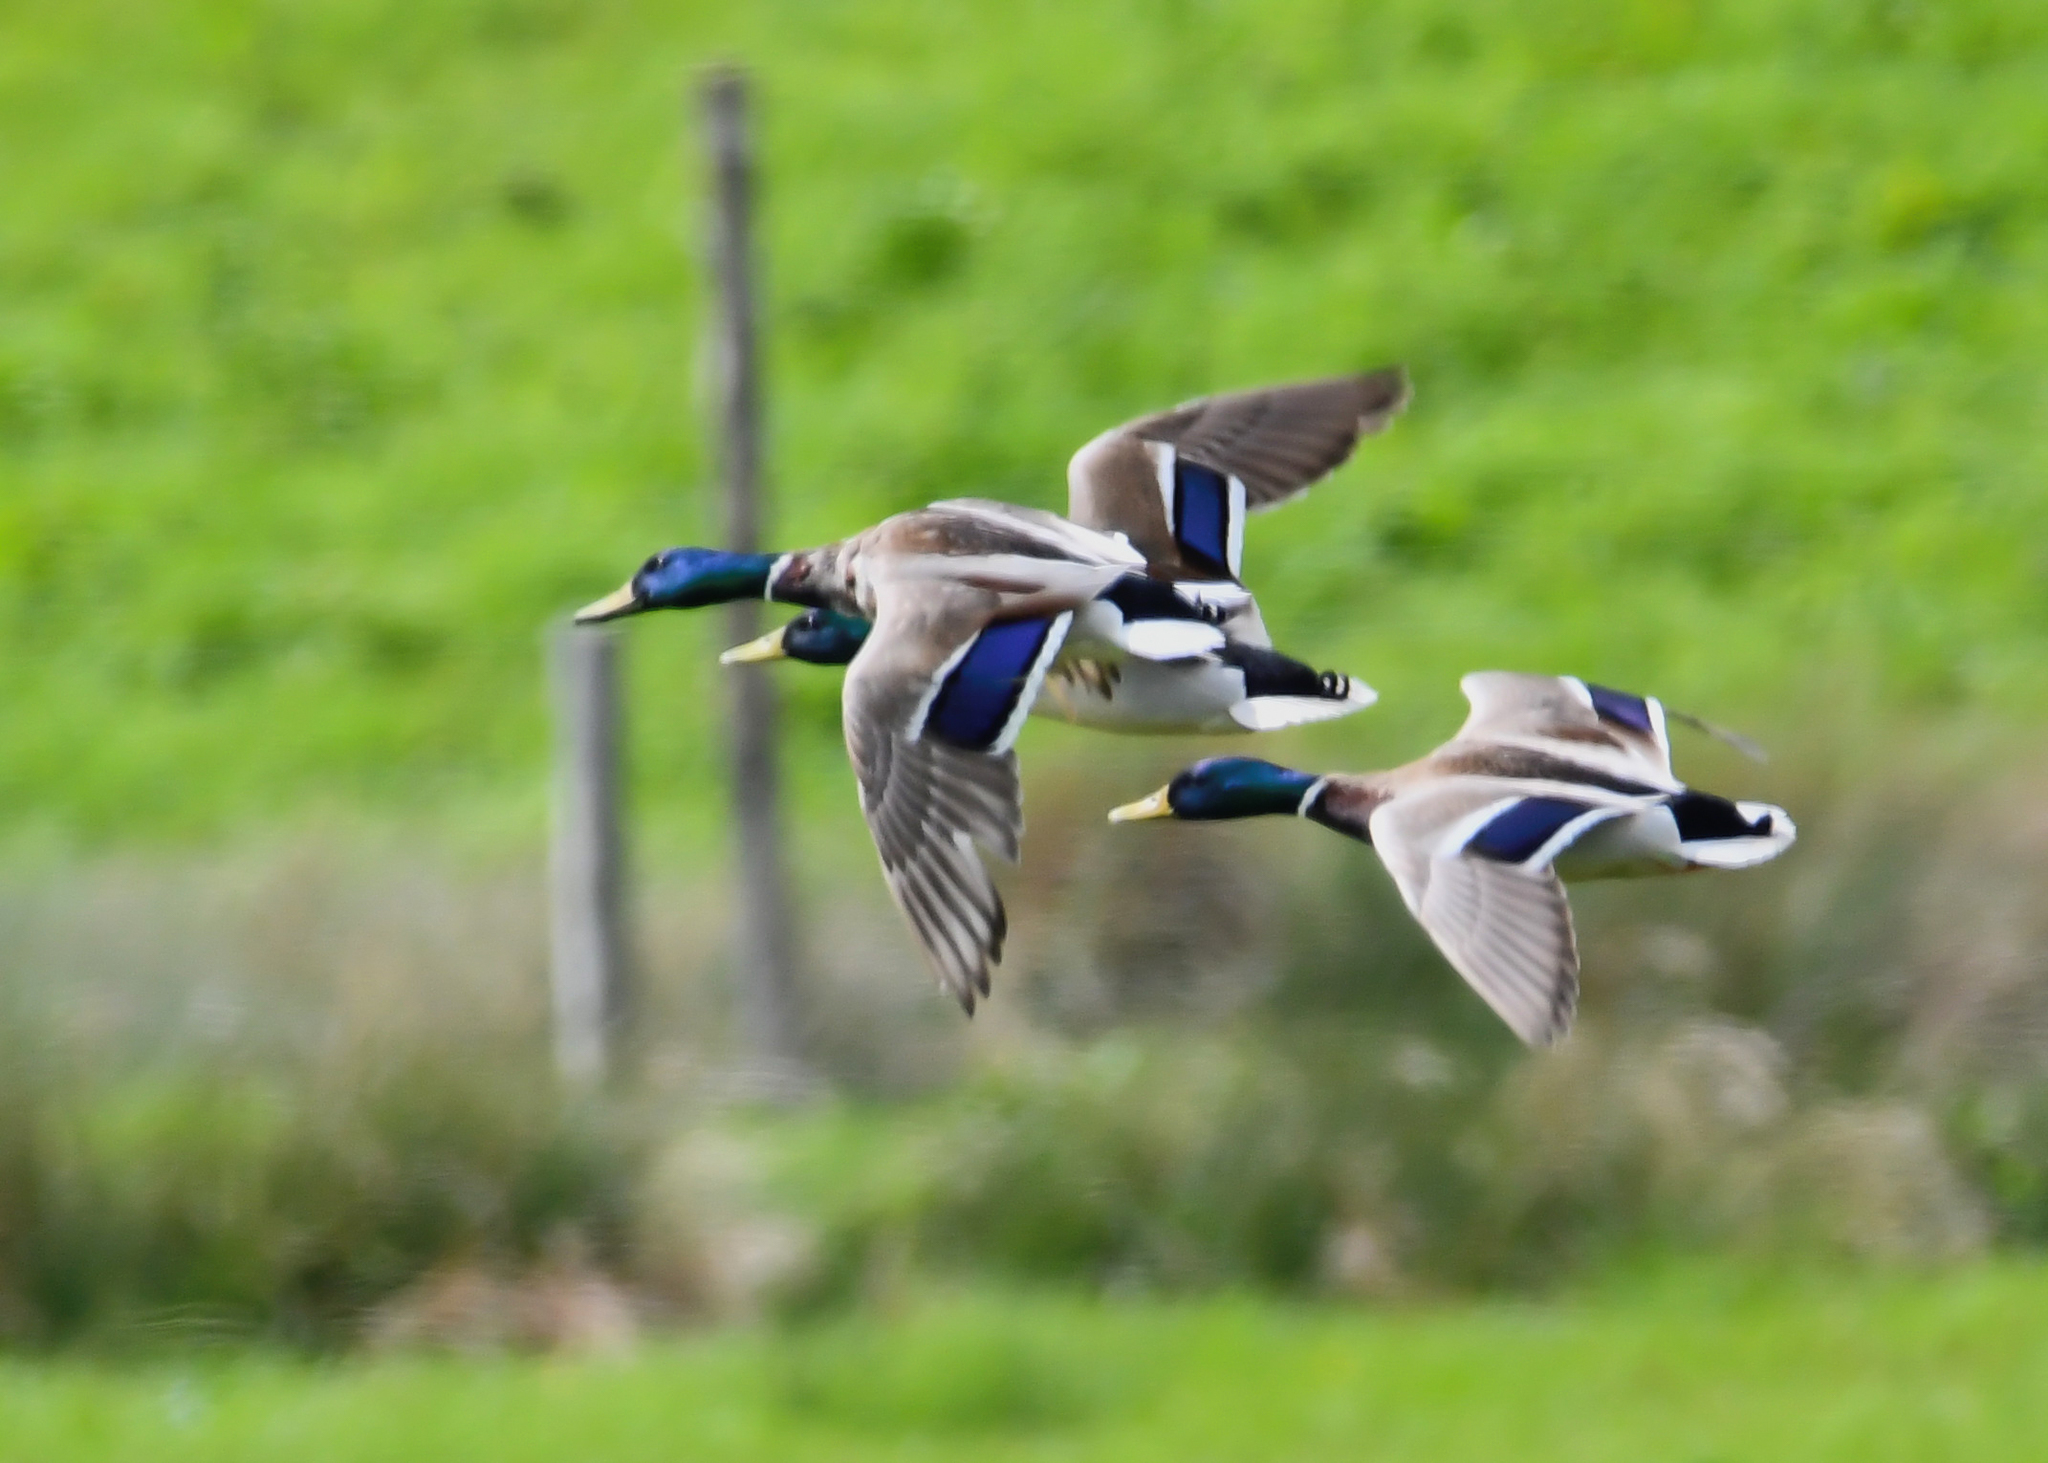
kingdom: Animalia
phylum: Chordata
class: Aves
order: Anseriformes
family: Anatidae
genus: Anas
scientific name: Anas platyrhynchos
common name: Mallard
